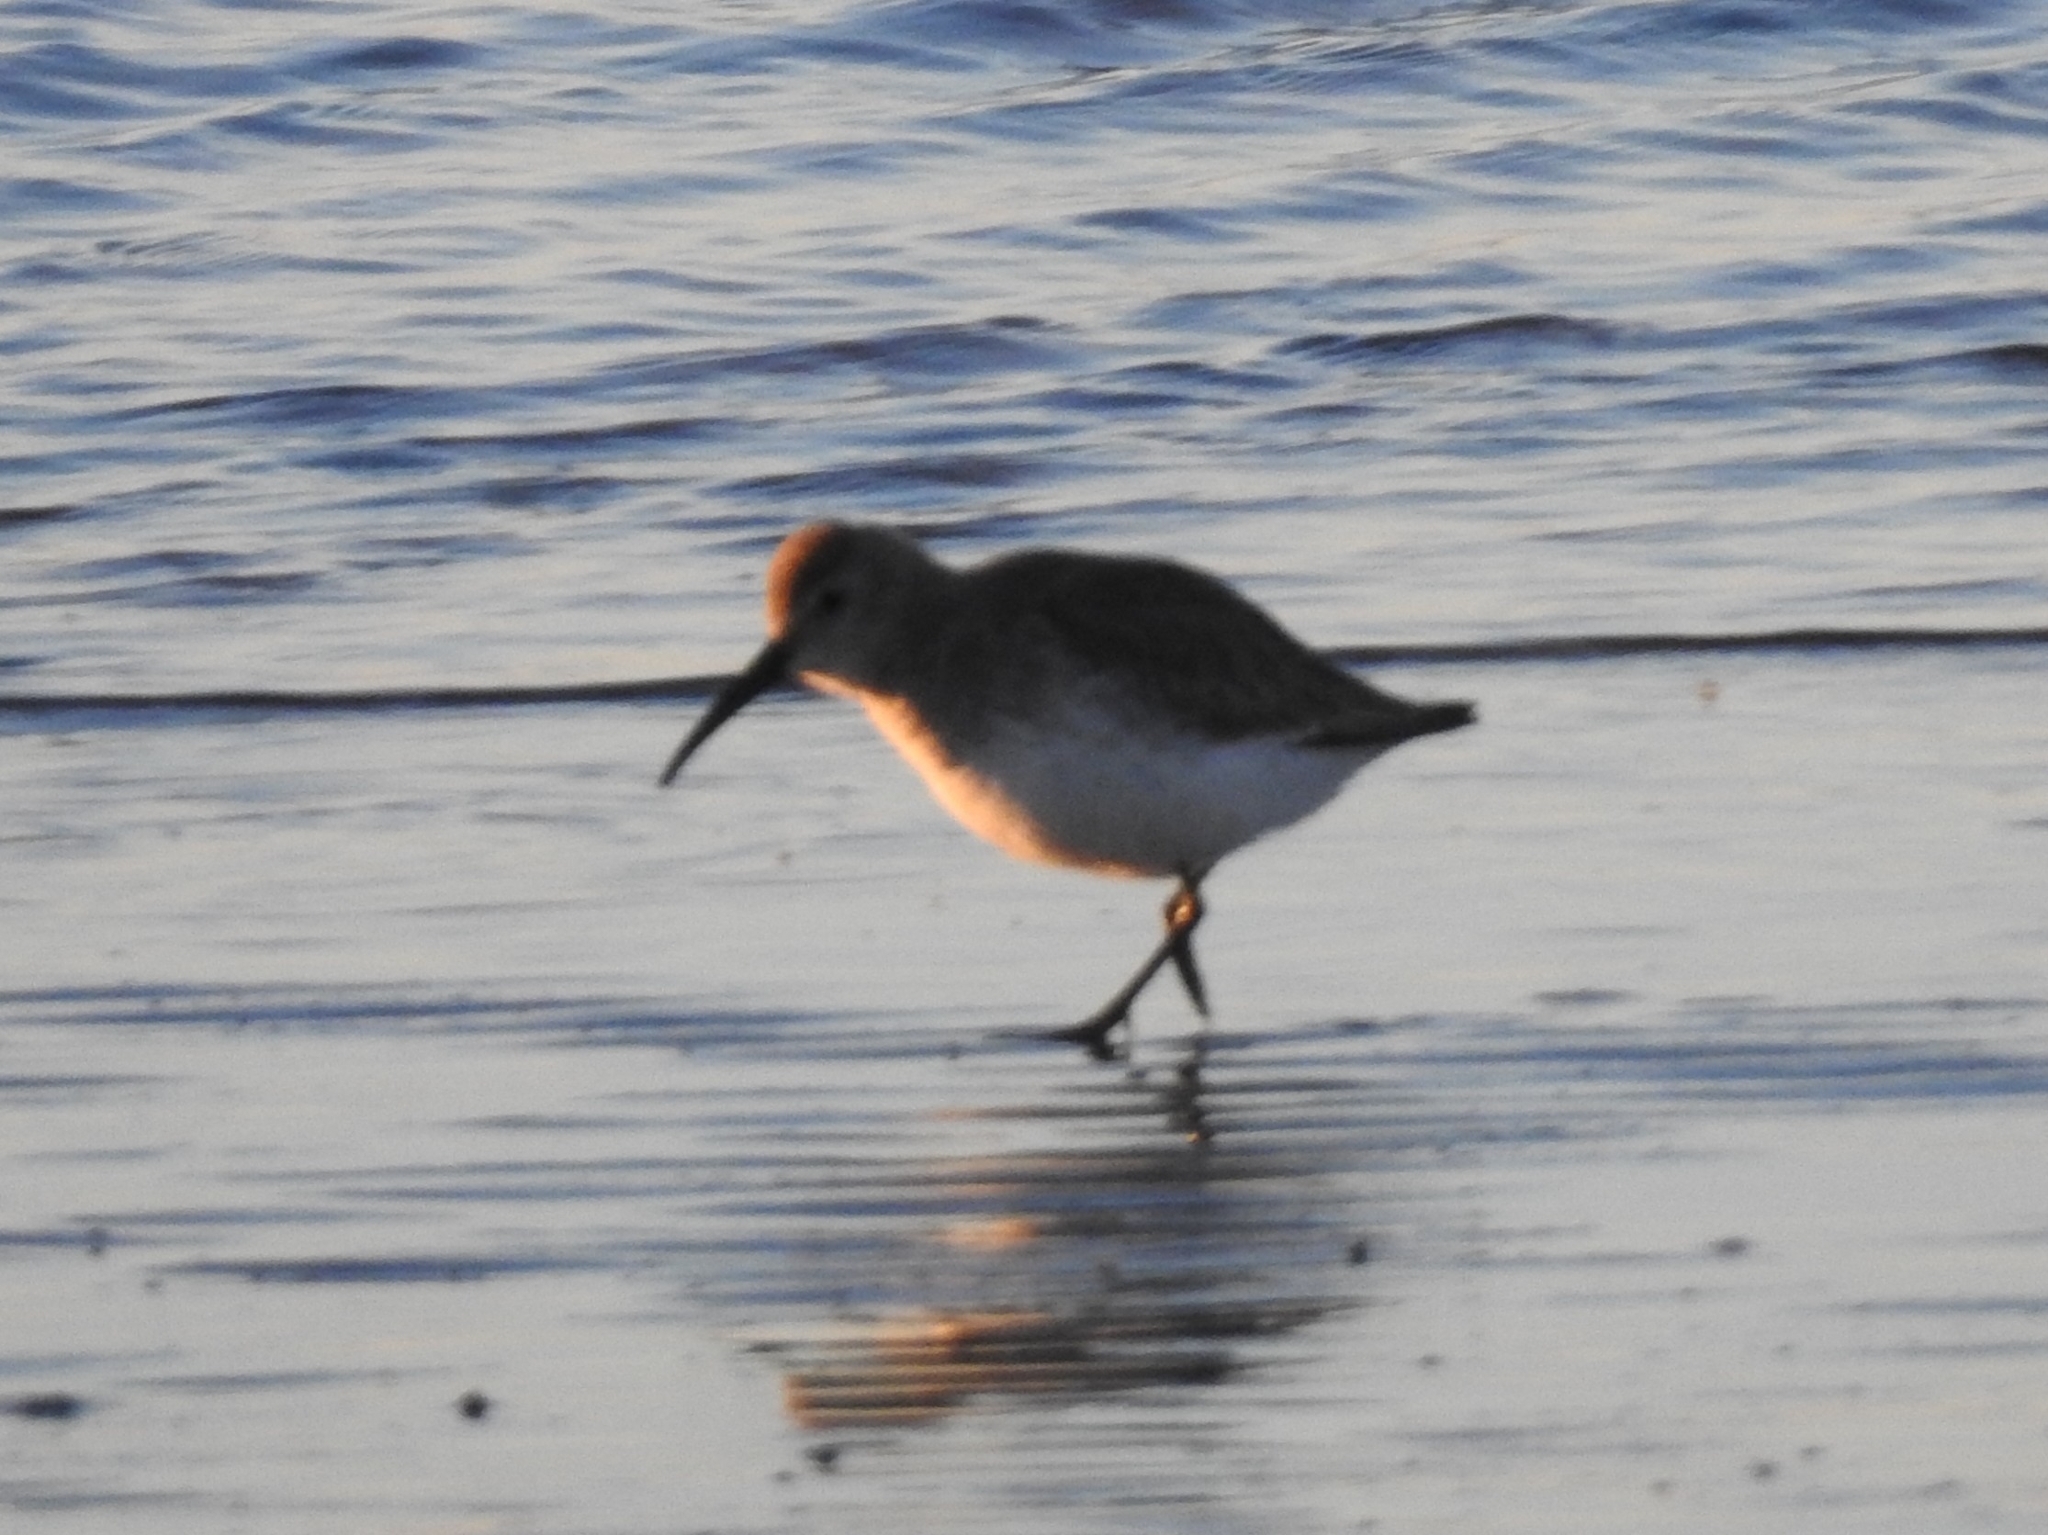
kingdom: Animalia
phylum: Chordata
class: Aves
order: Charadriiformes
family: Scolopacidae
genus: Calidris
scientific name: Calidris alpina
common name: Dunlin
